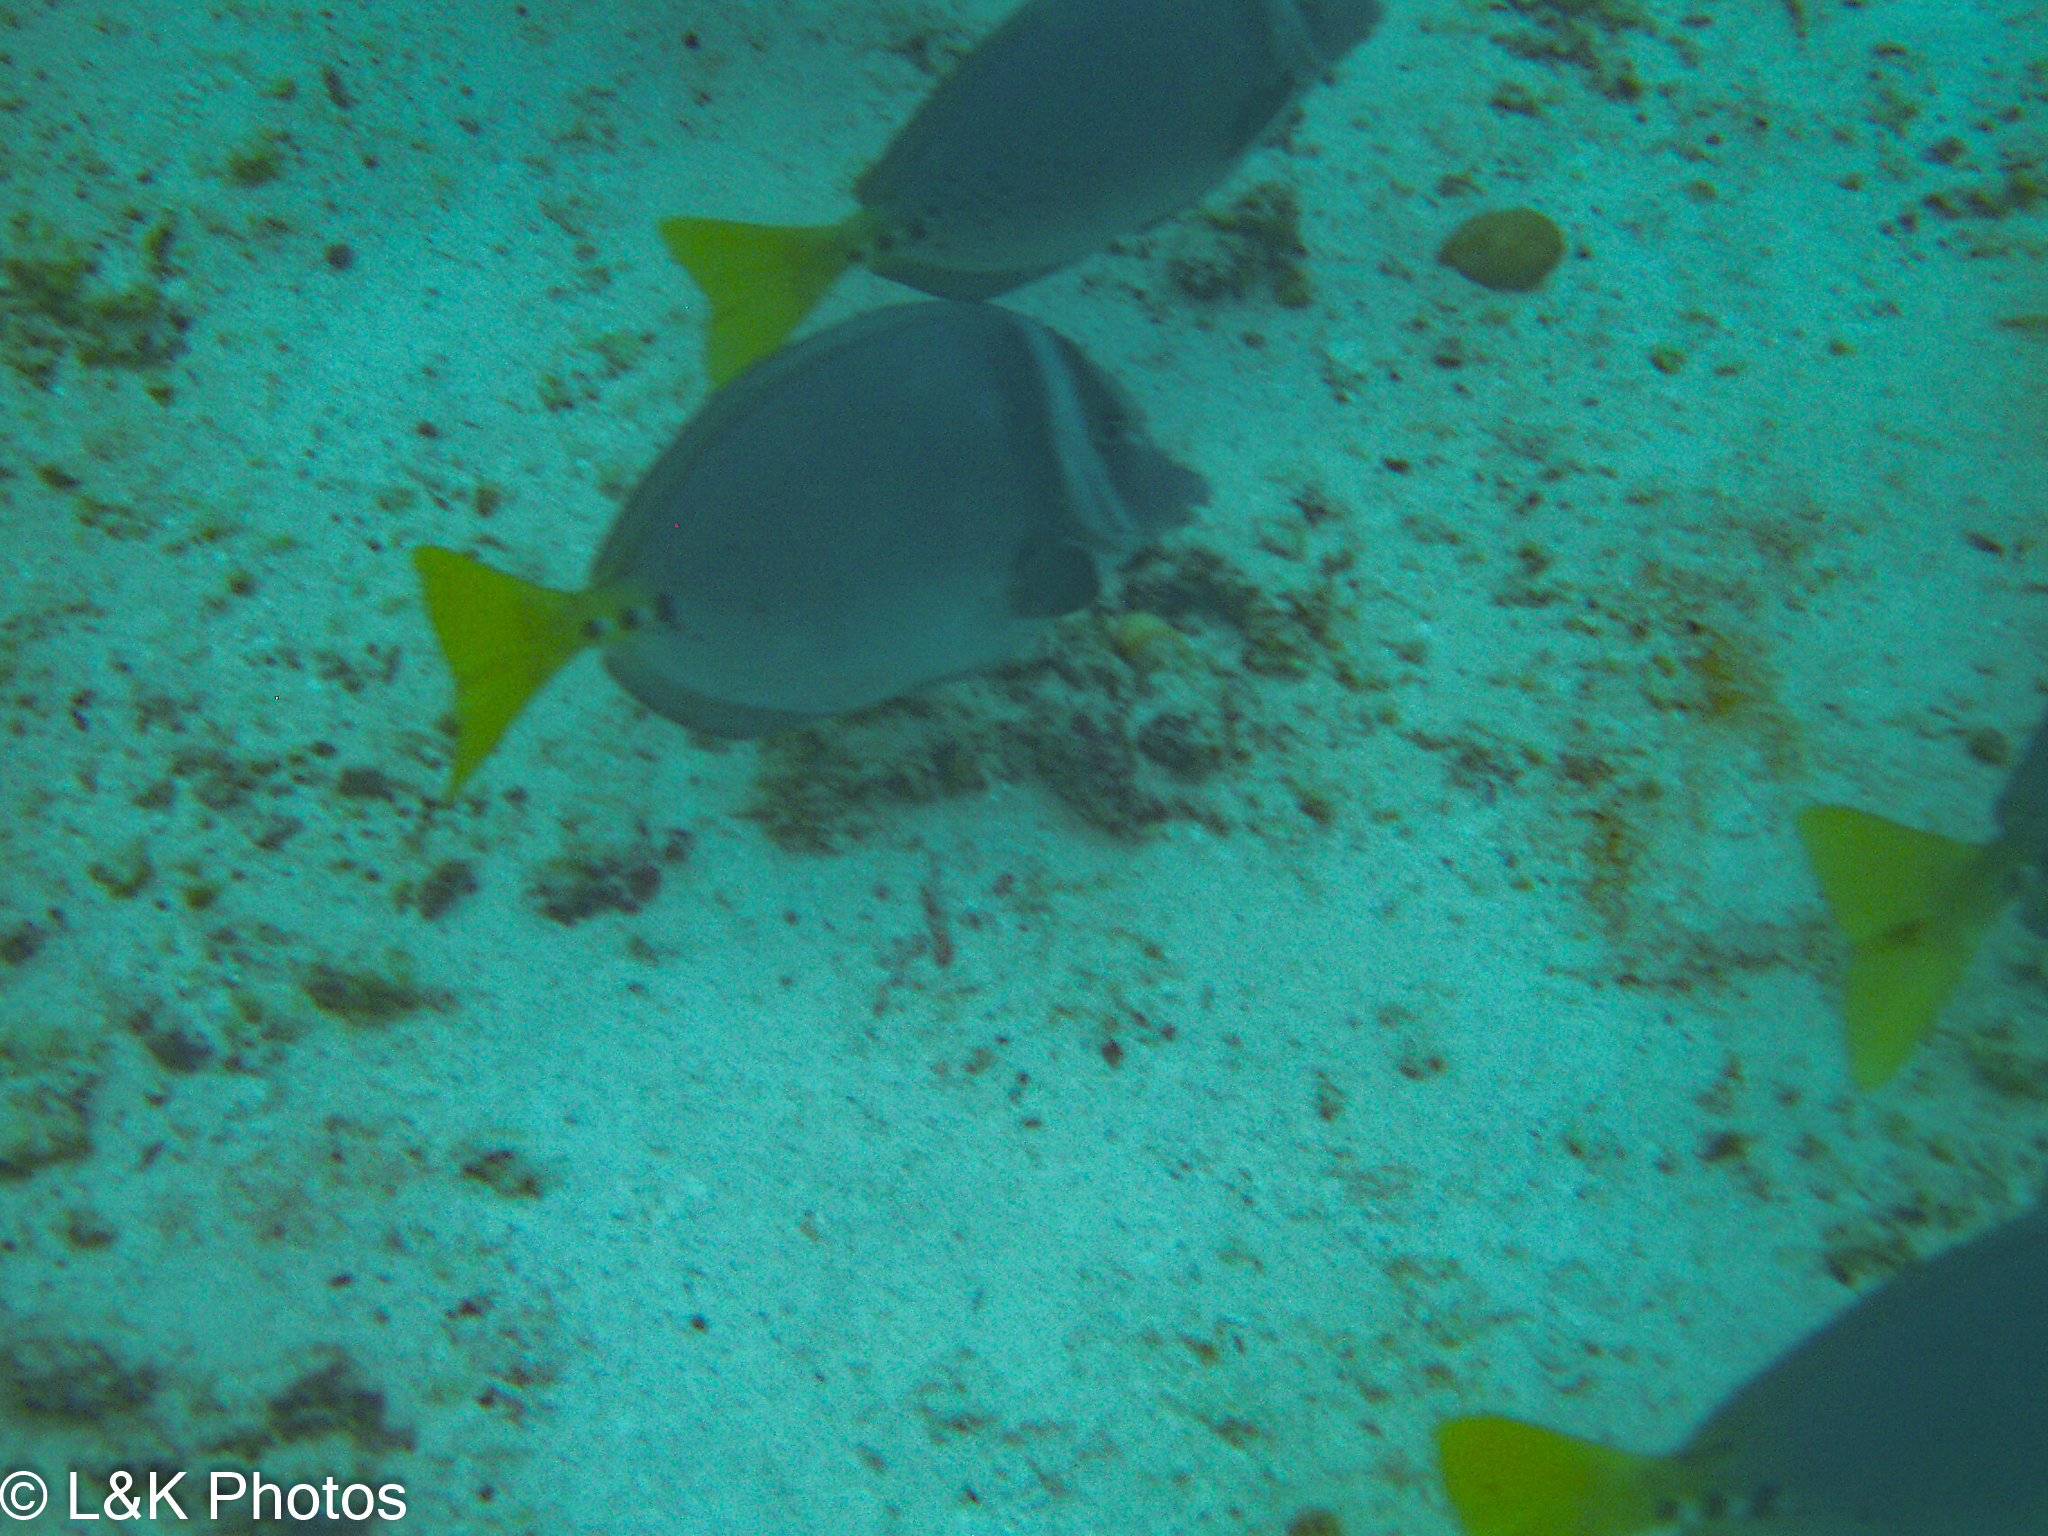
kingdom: Animalia
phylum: Chordata
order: Perciformes
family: Acanthuridae
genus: Prionurus
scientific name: Prionurus laticlavius
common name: Razor surgeonfish
